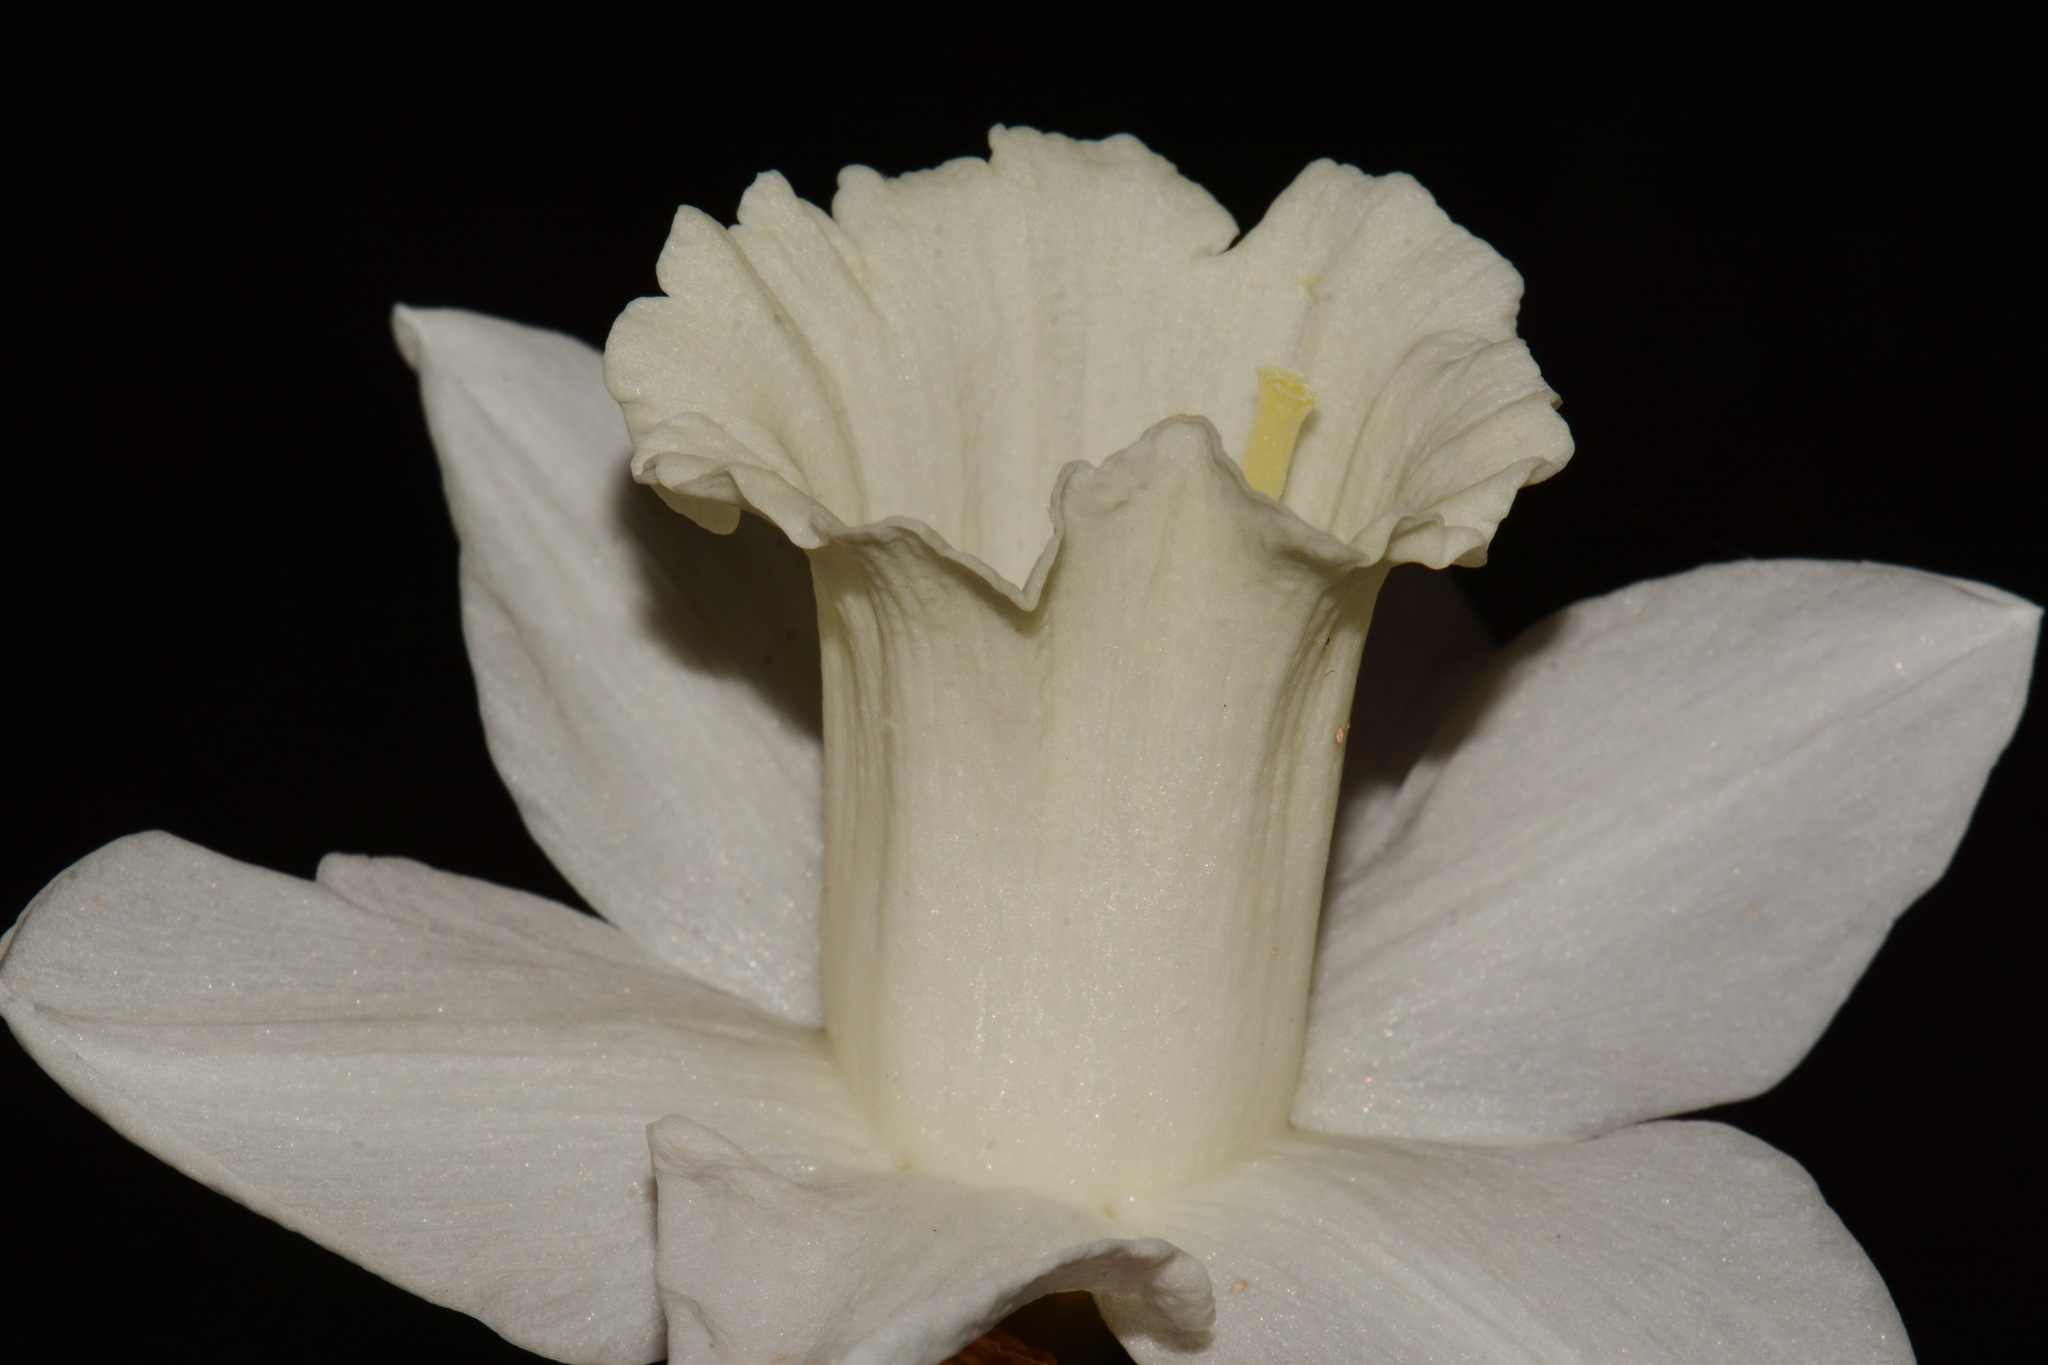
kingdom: Plantae
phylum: Tracheophyta
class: Liliopsida
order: Asparagales
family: Amaryllidaceae
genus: Narcissus
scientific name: Narcissus pseudonarcissus
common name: Daffodil
